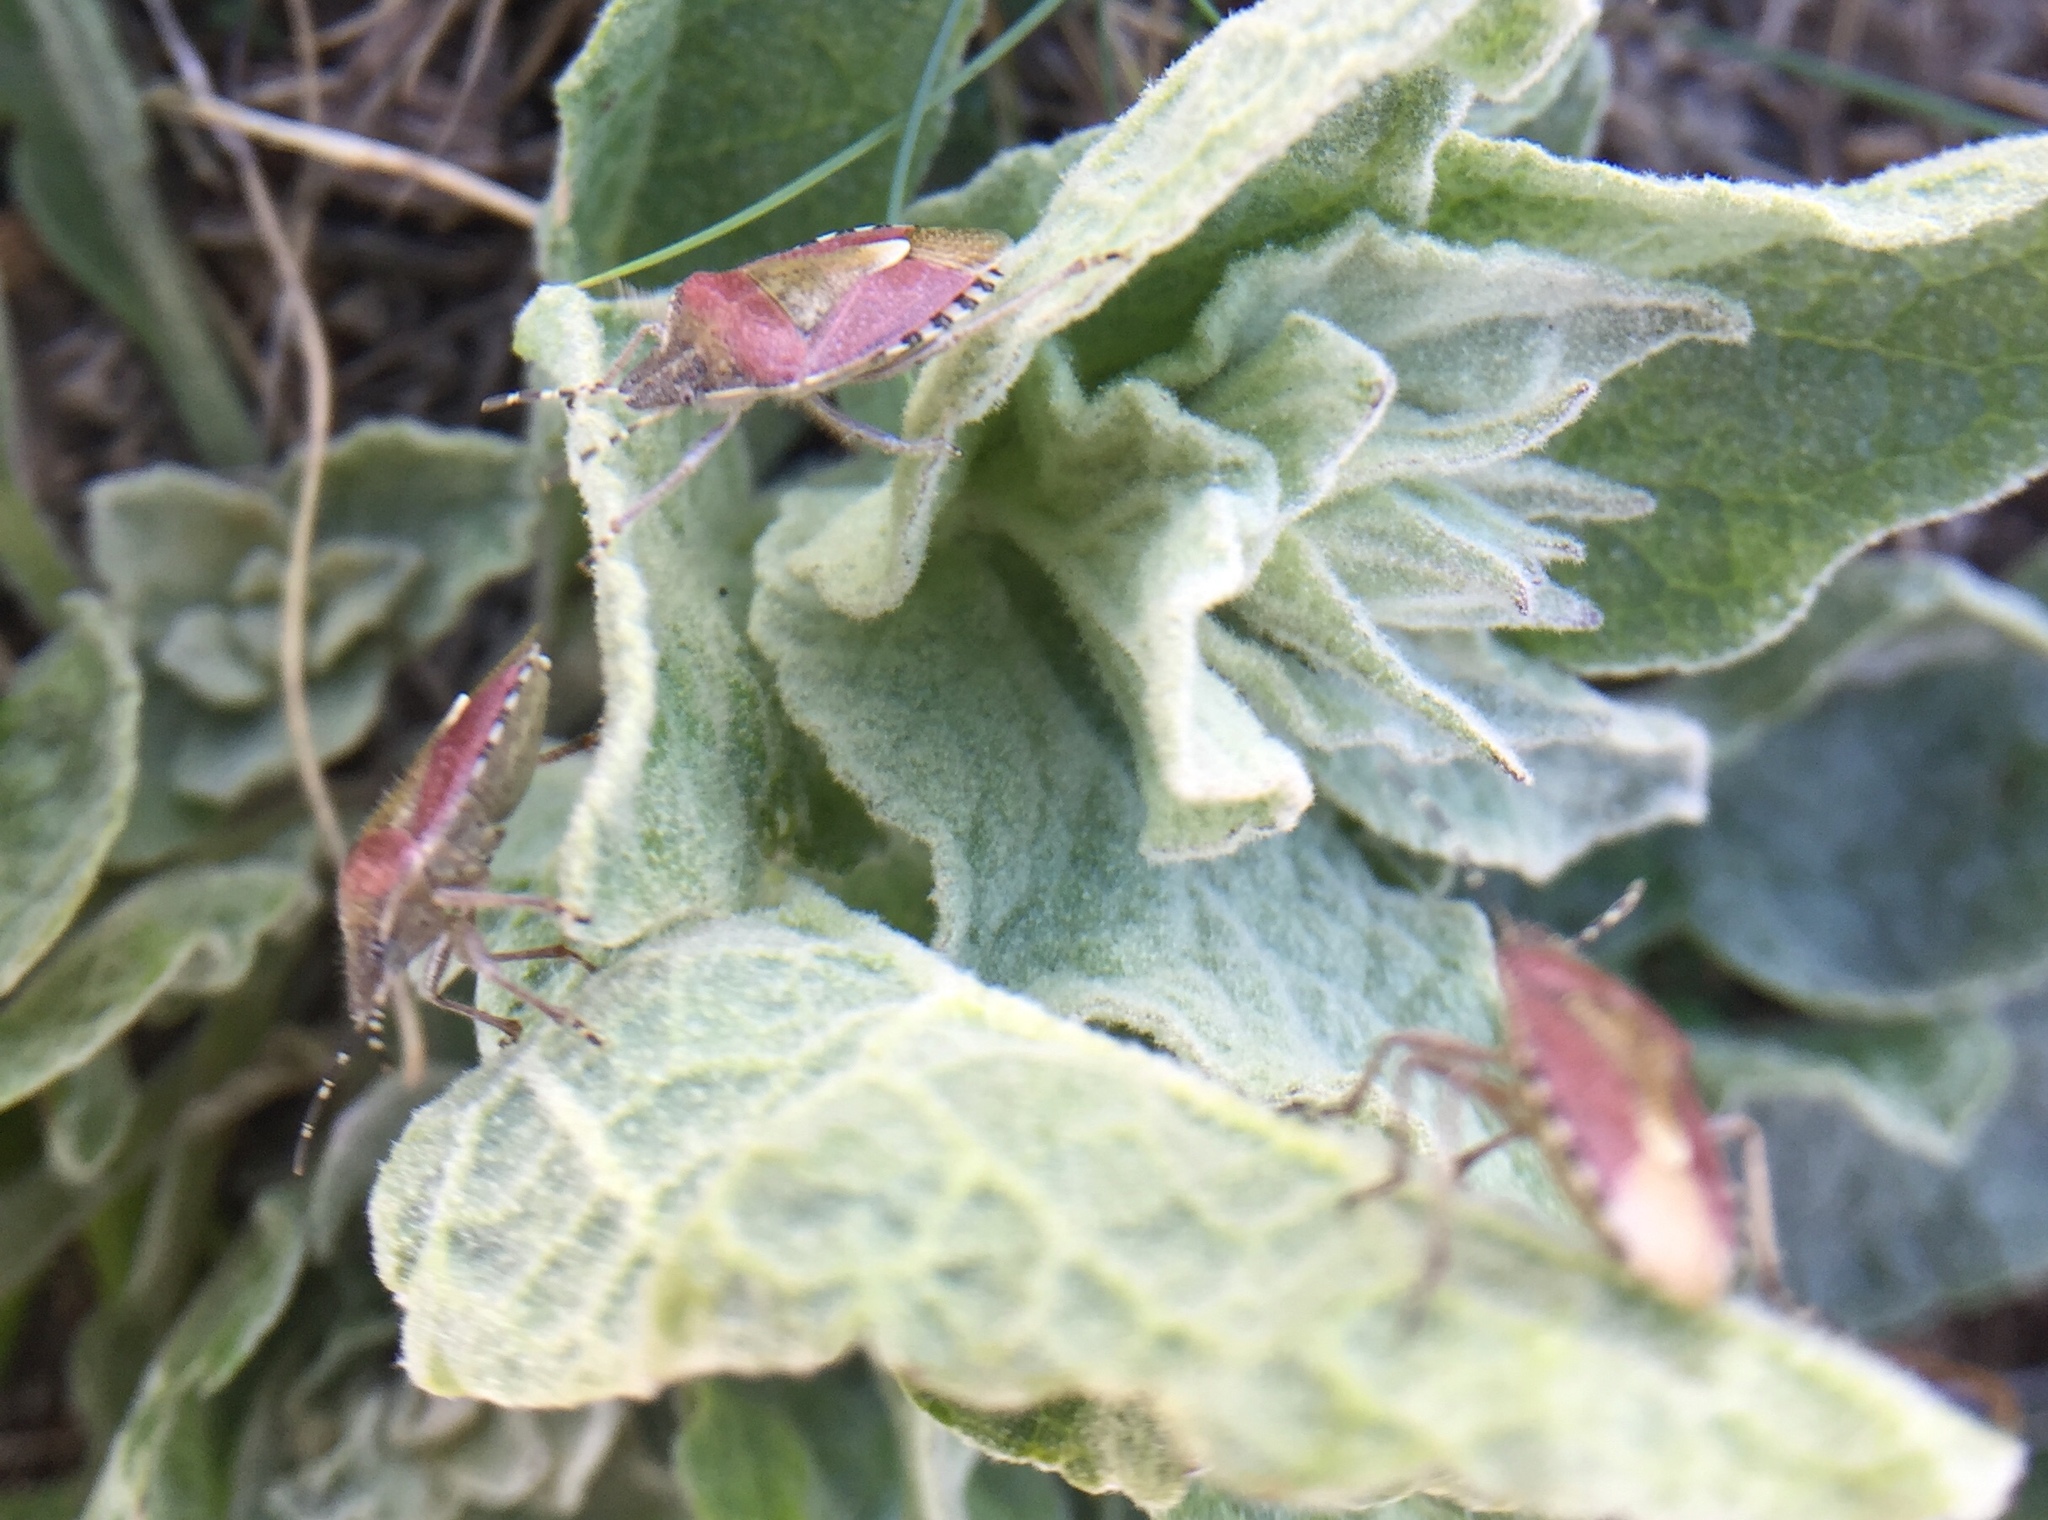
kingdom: Animalia
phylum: Arthropoda
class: Insecta
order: Hemiptera
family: Pentatomidae
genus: Dolycoris
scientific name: Dolycoris baccarum
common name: Sloe bug
